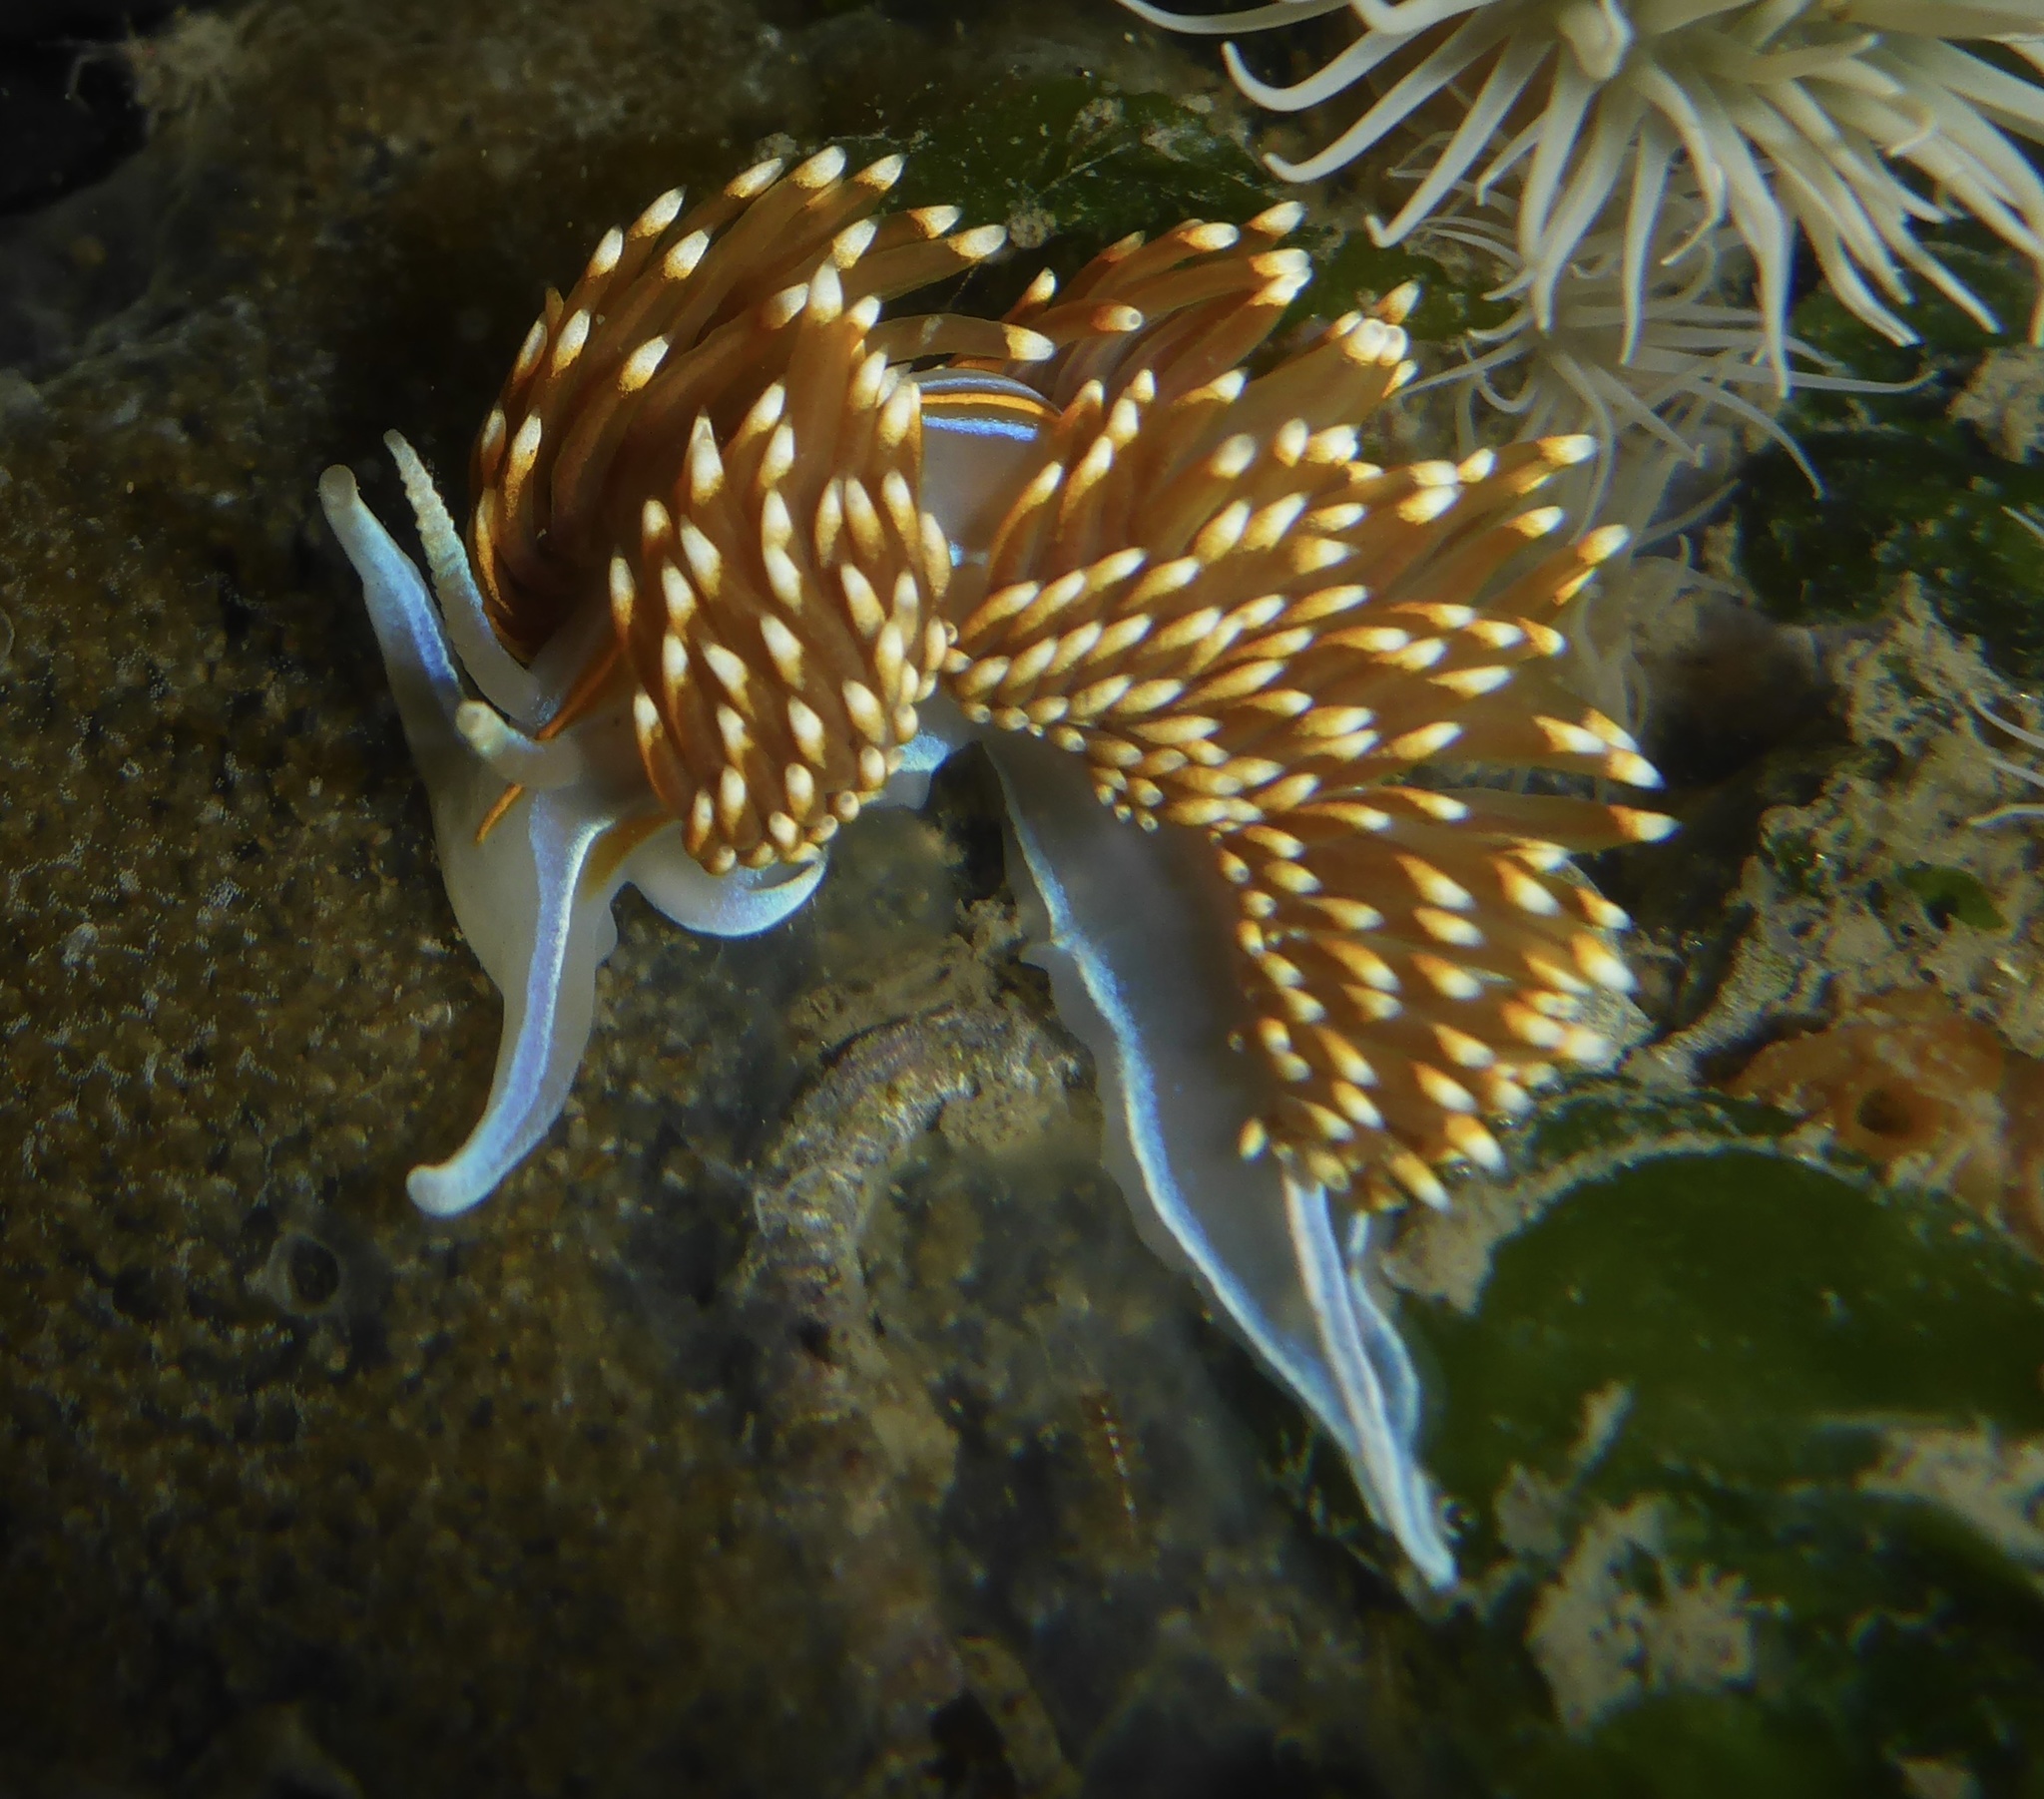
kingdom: Animalia
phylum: Mollusca
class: Gastropoda
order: Nudibranchia
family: Myrrhinidae
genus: Hermissenda
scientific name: Hermissenda opalescens
